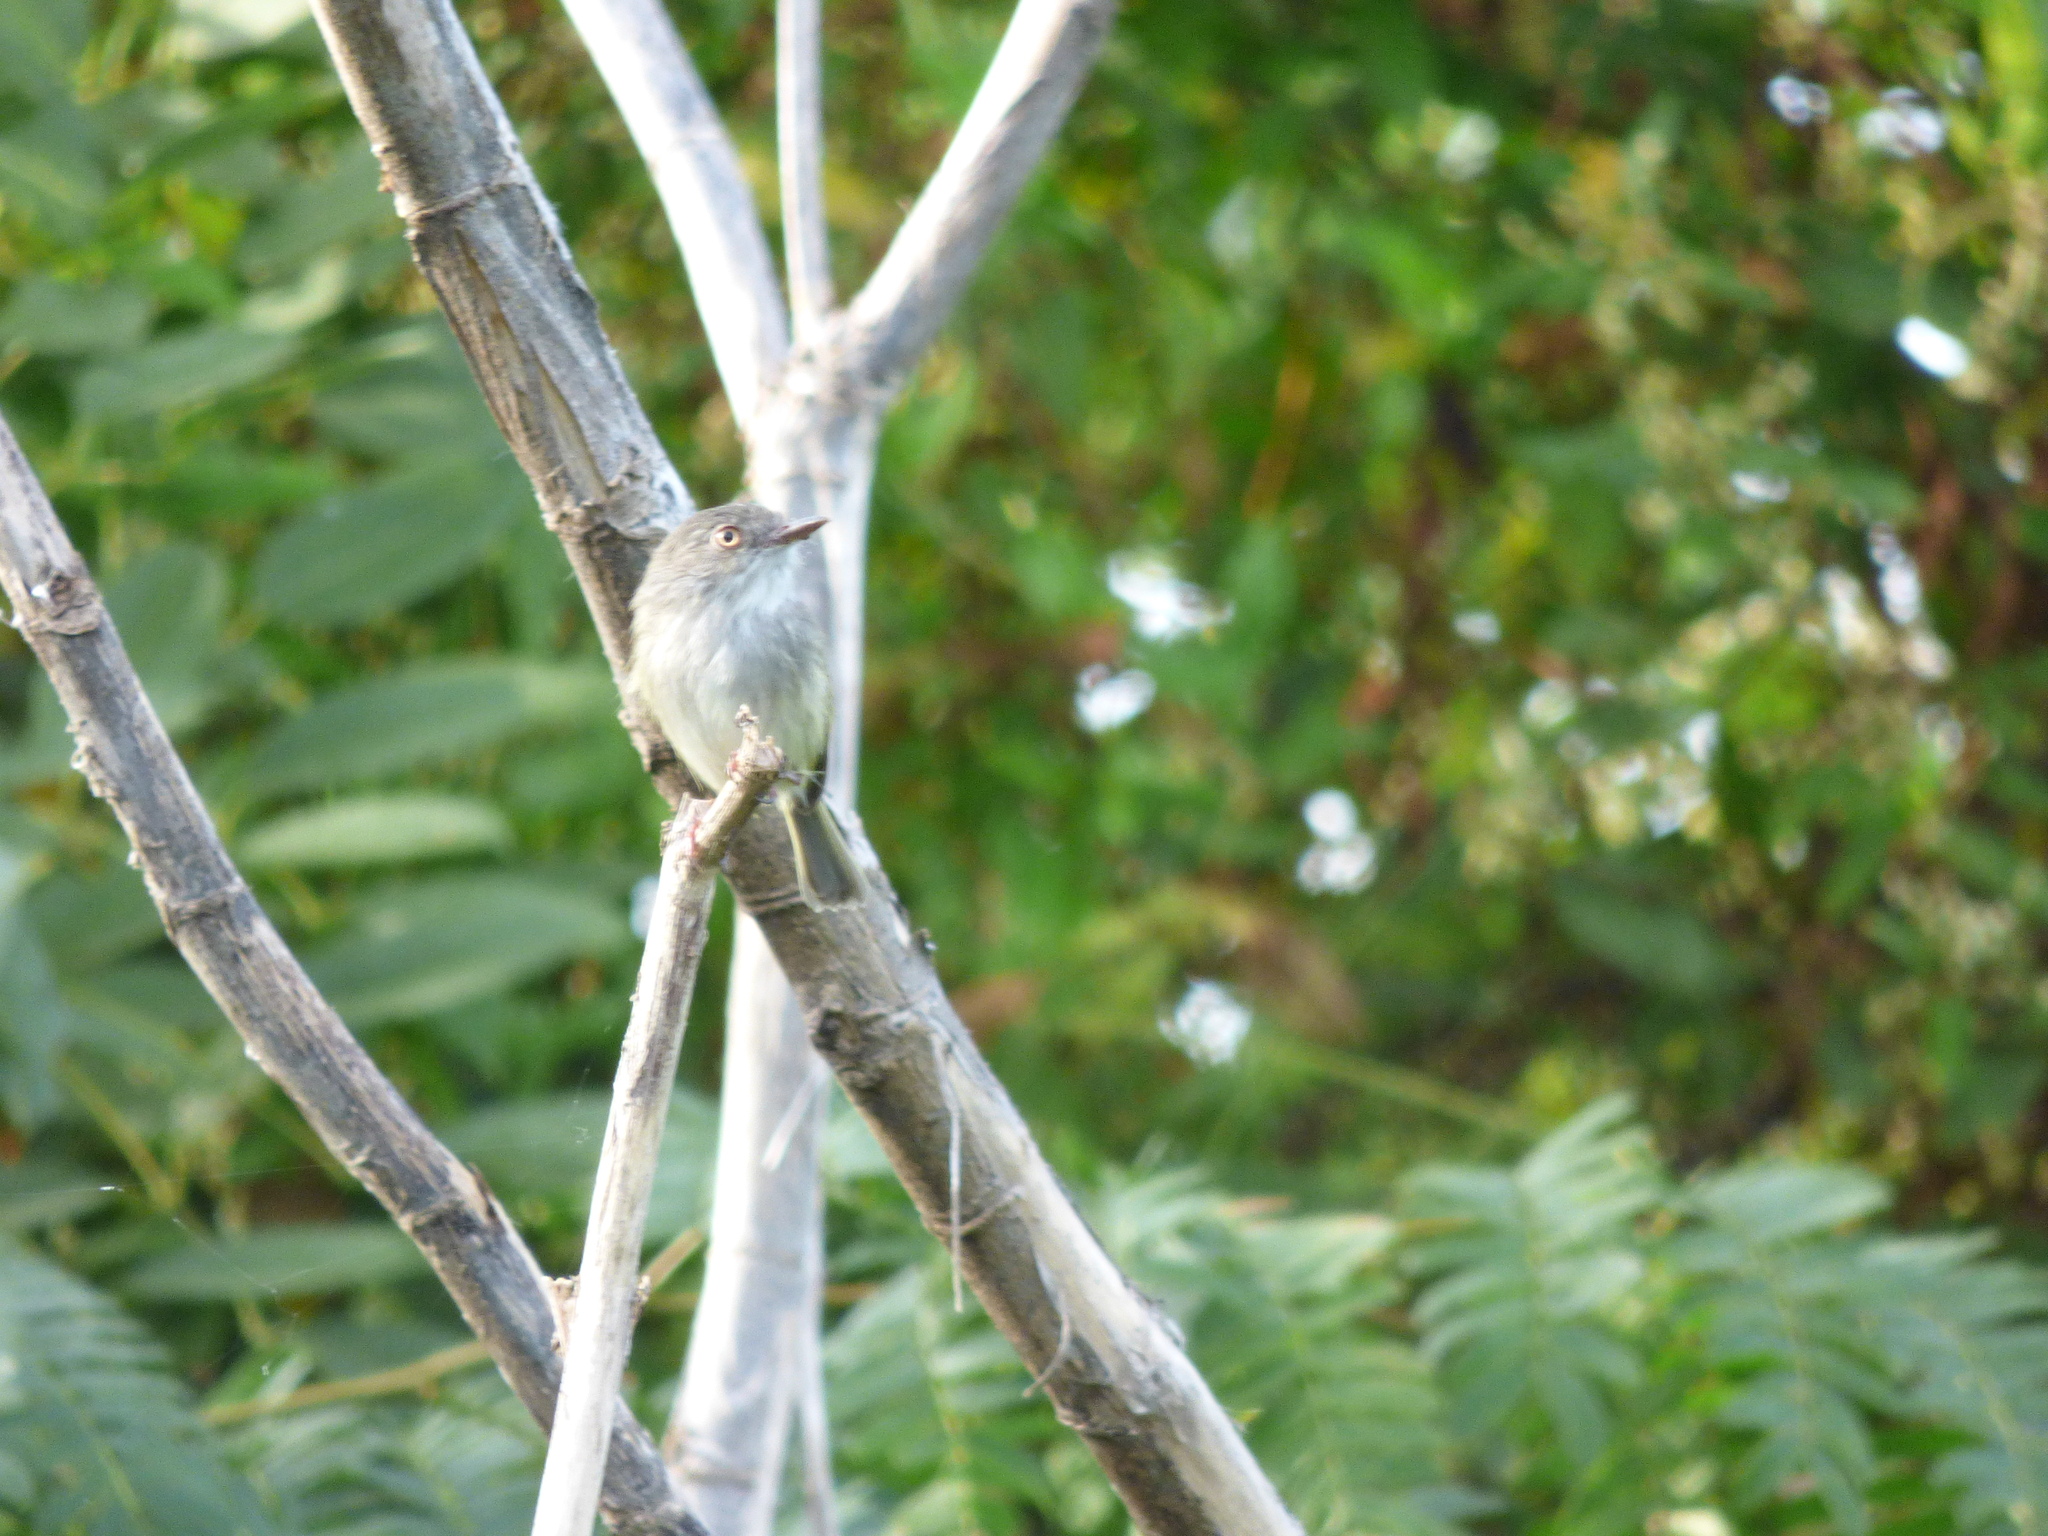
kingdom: Animalia
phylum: Chordata
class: Aves
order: Passeriformes
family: Tyrannidae
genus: Hemitriccus
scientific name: Hemitriccus margaritaceiventer
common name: Pearly-vented tody-tyrant
